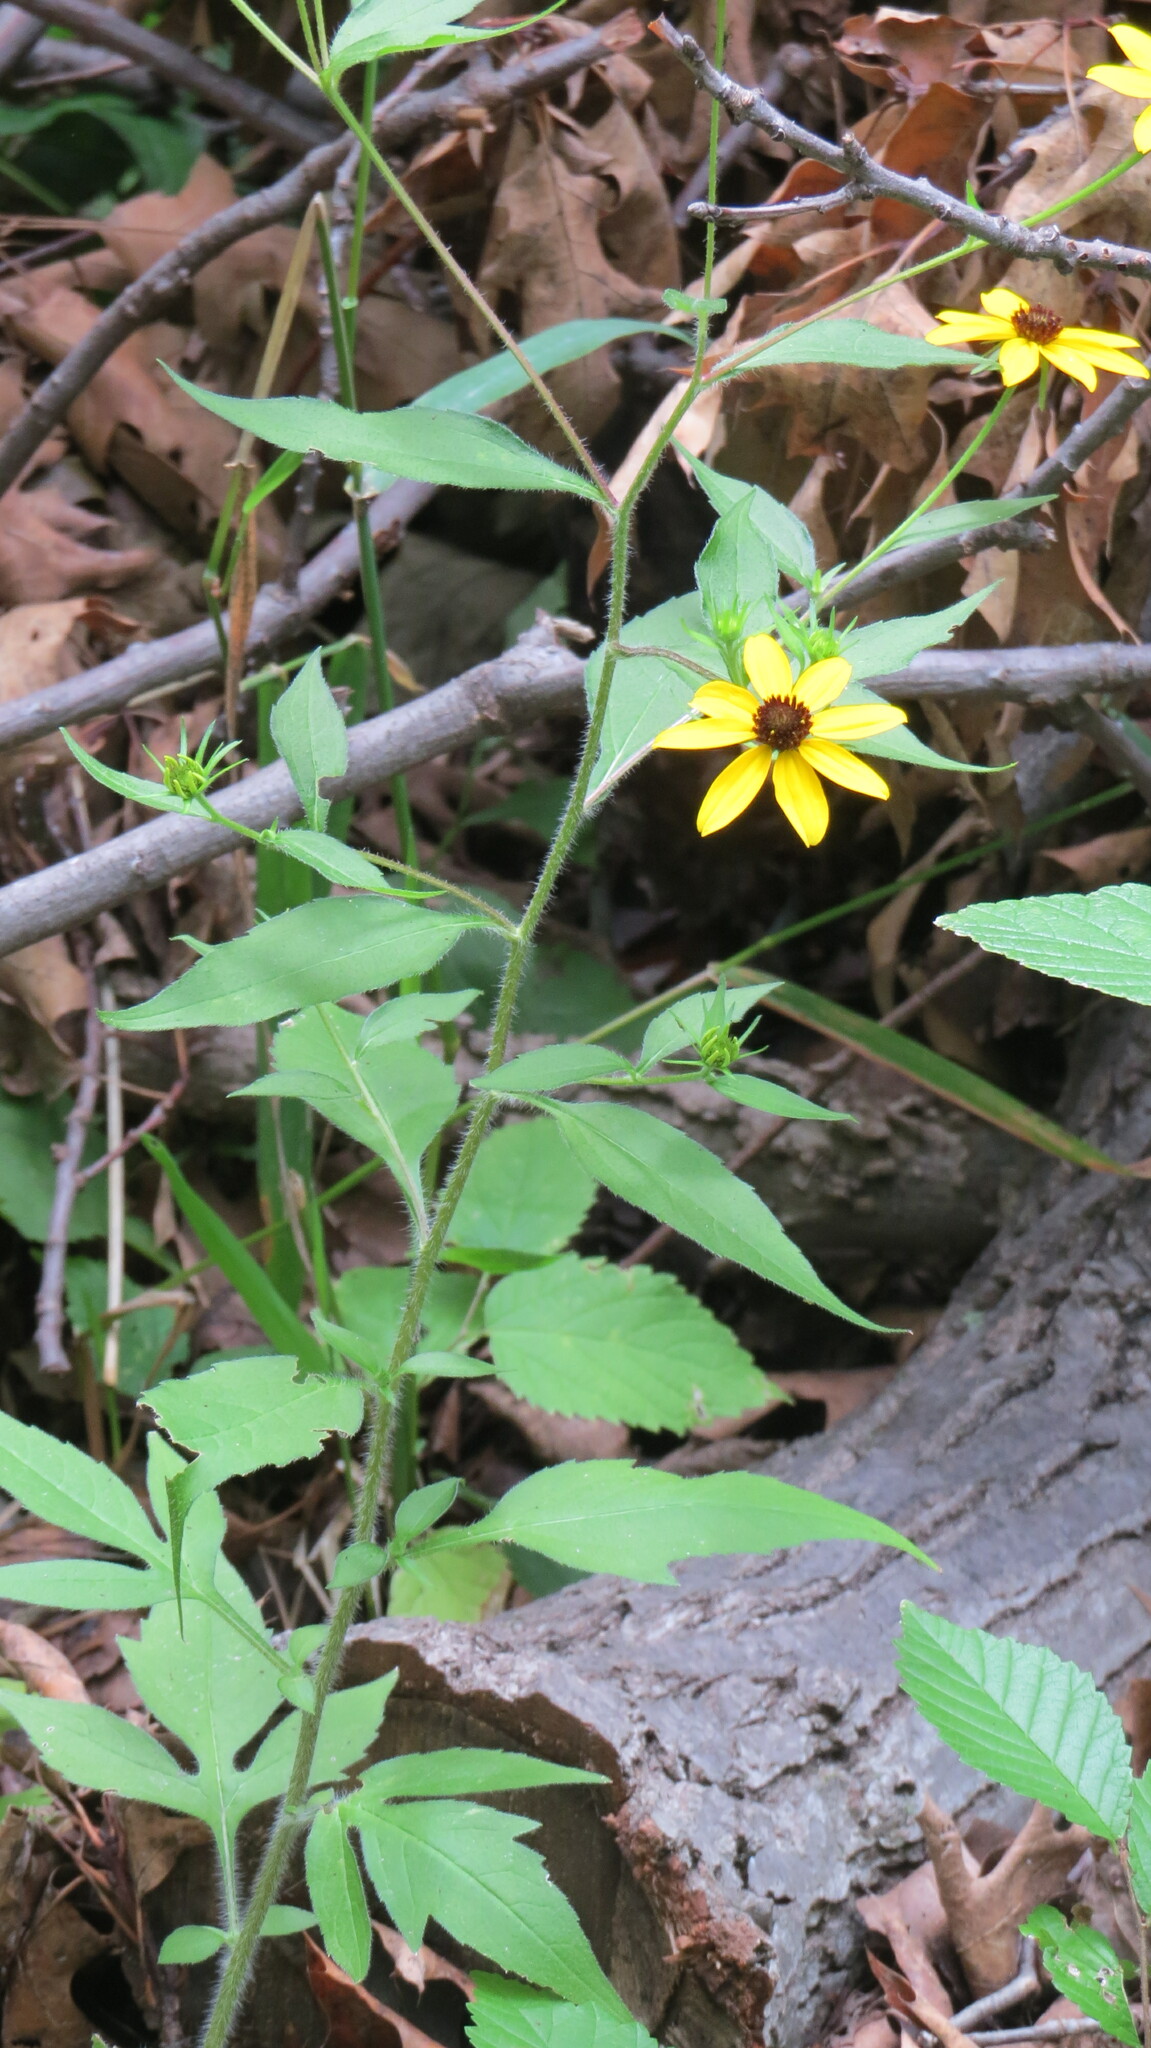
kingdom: Plantae
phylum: Tracheophyta
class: Magnoliopsida
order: Asterales
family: Asteraceae
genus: Rudbeckia
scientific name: Rudbeckia triloba
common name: Thin-leaved coneflower
